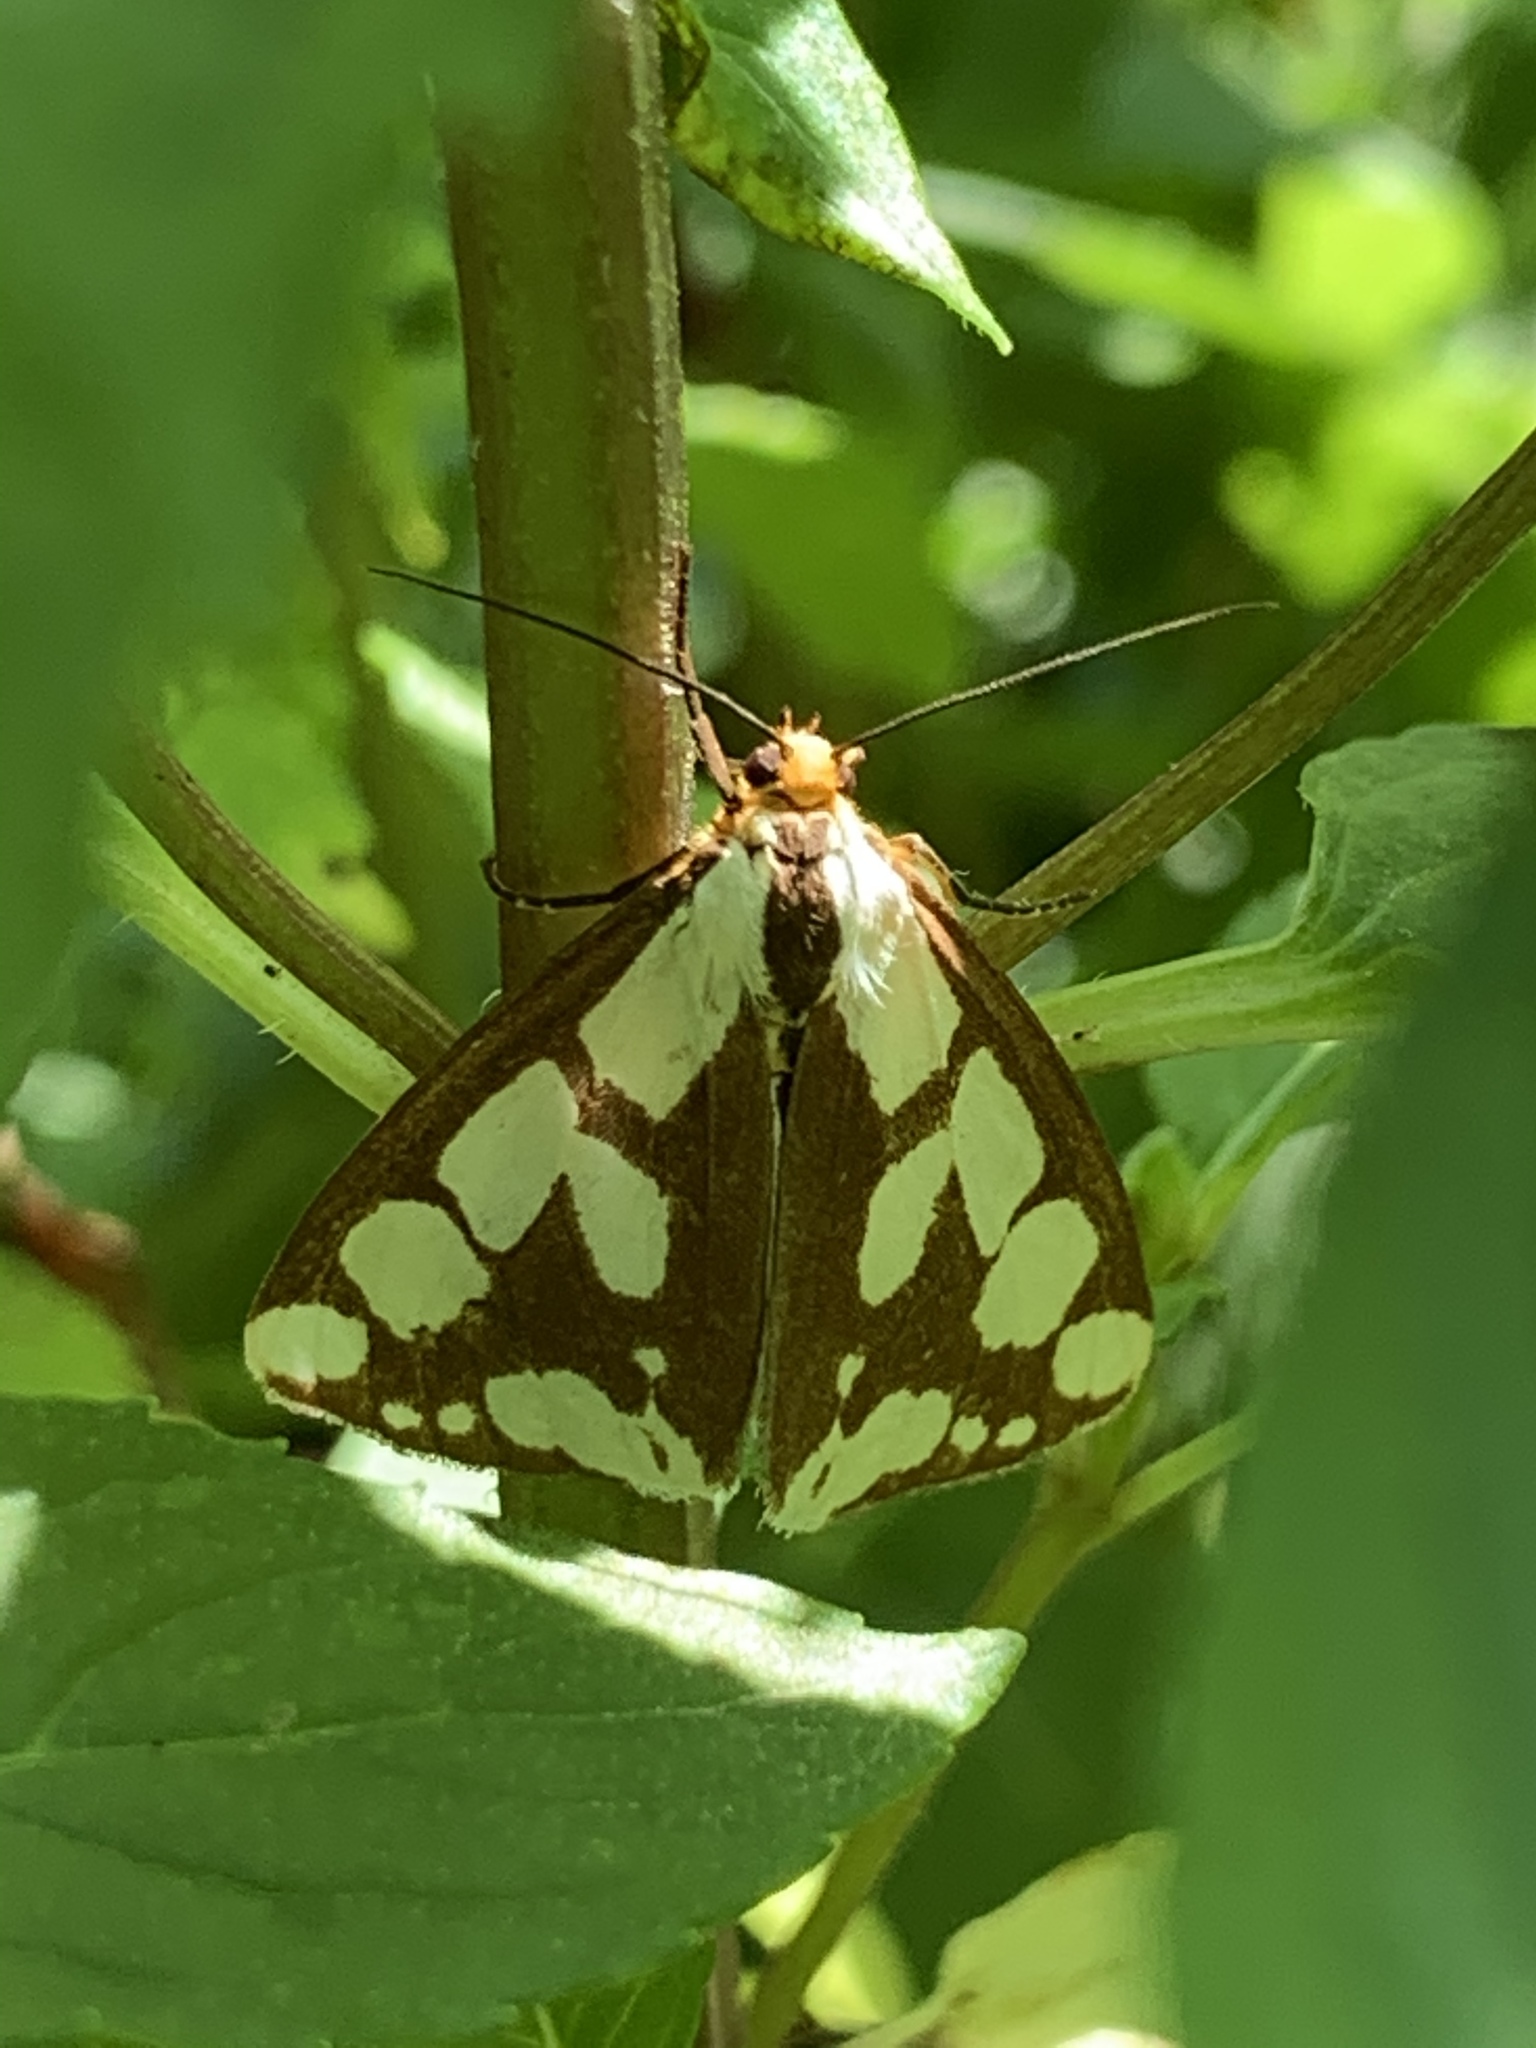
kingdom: Animalia
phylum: Arthropoda
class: Insecta
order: Lepidoptera
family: Erebidae
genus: Haploa
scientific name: Haploa confusa
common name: Confused haploa moth
